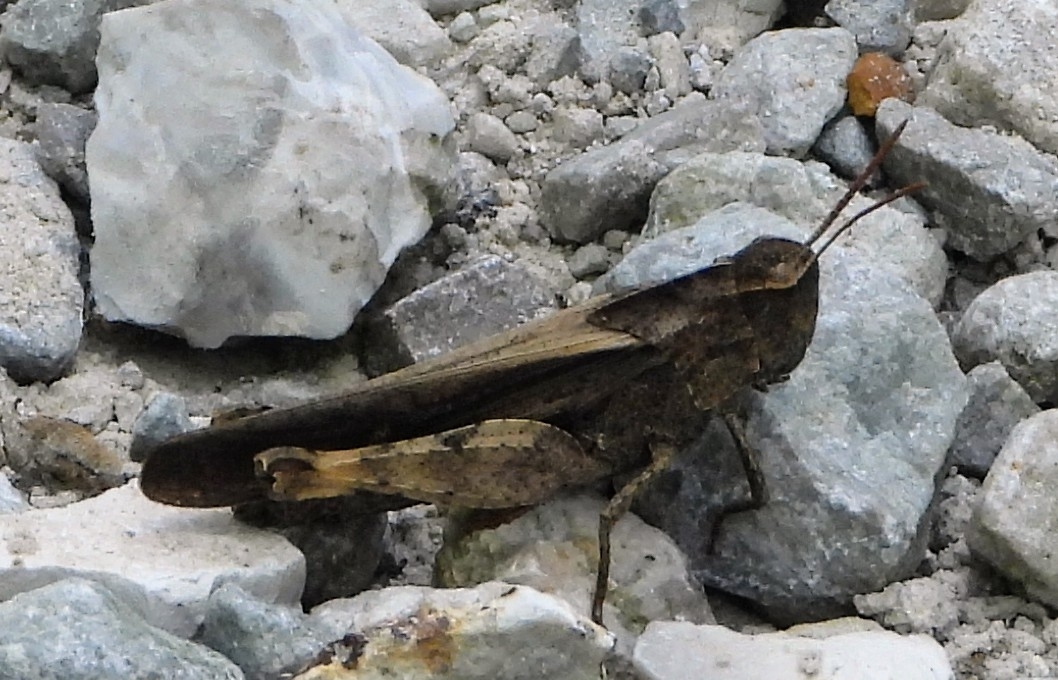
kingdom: Animalia
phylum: Arthropoda
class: Insecta
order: Orthoptera
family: Acrididae
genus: Chortophaga
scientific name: Chortophaga viridifasciata
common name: Green-striped grasshopper
